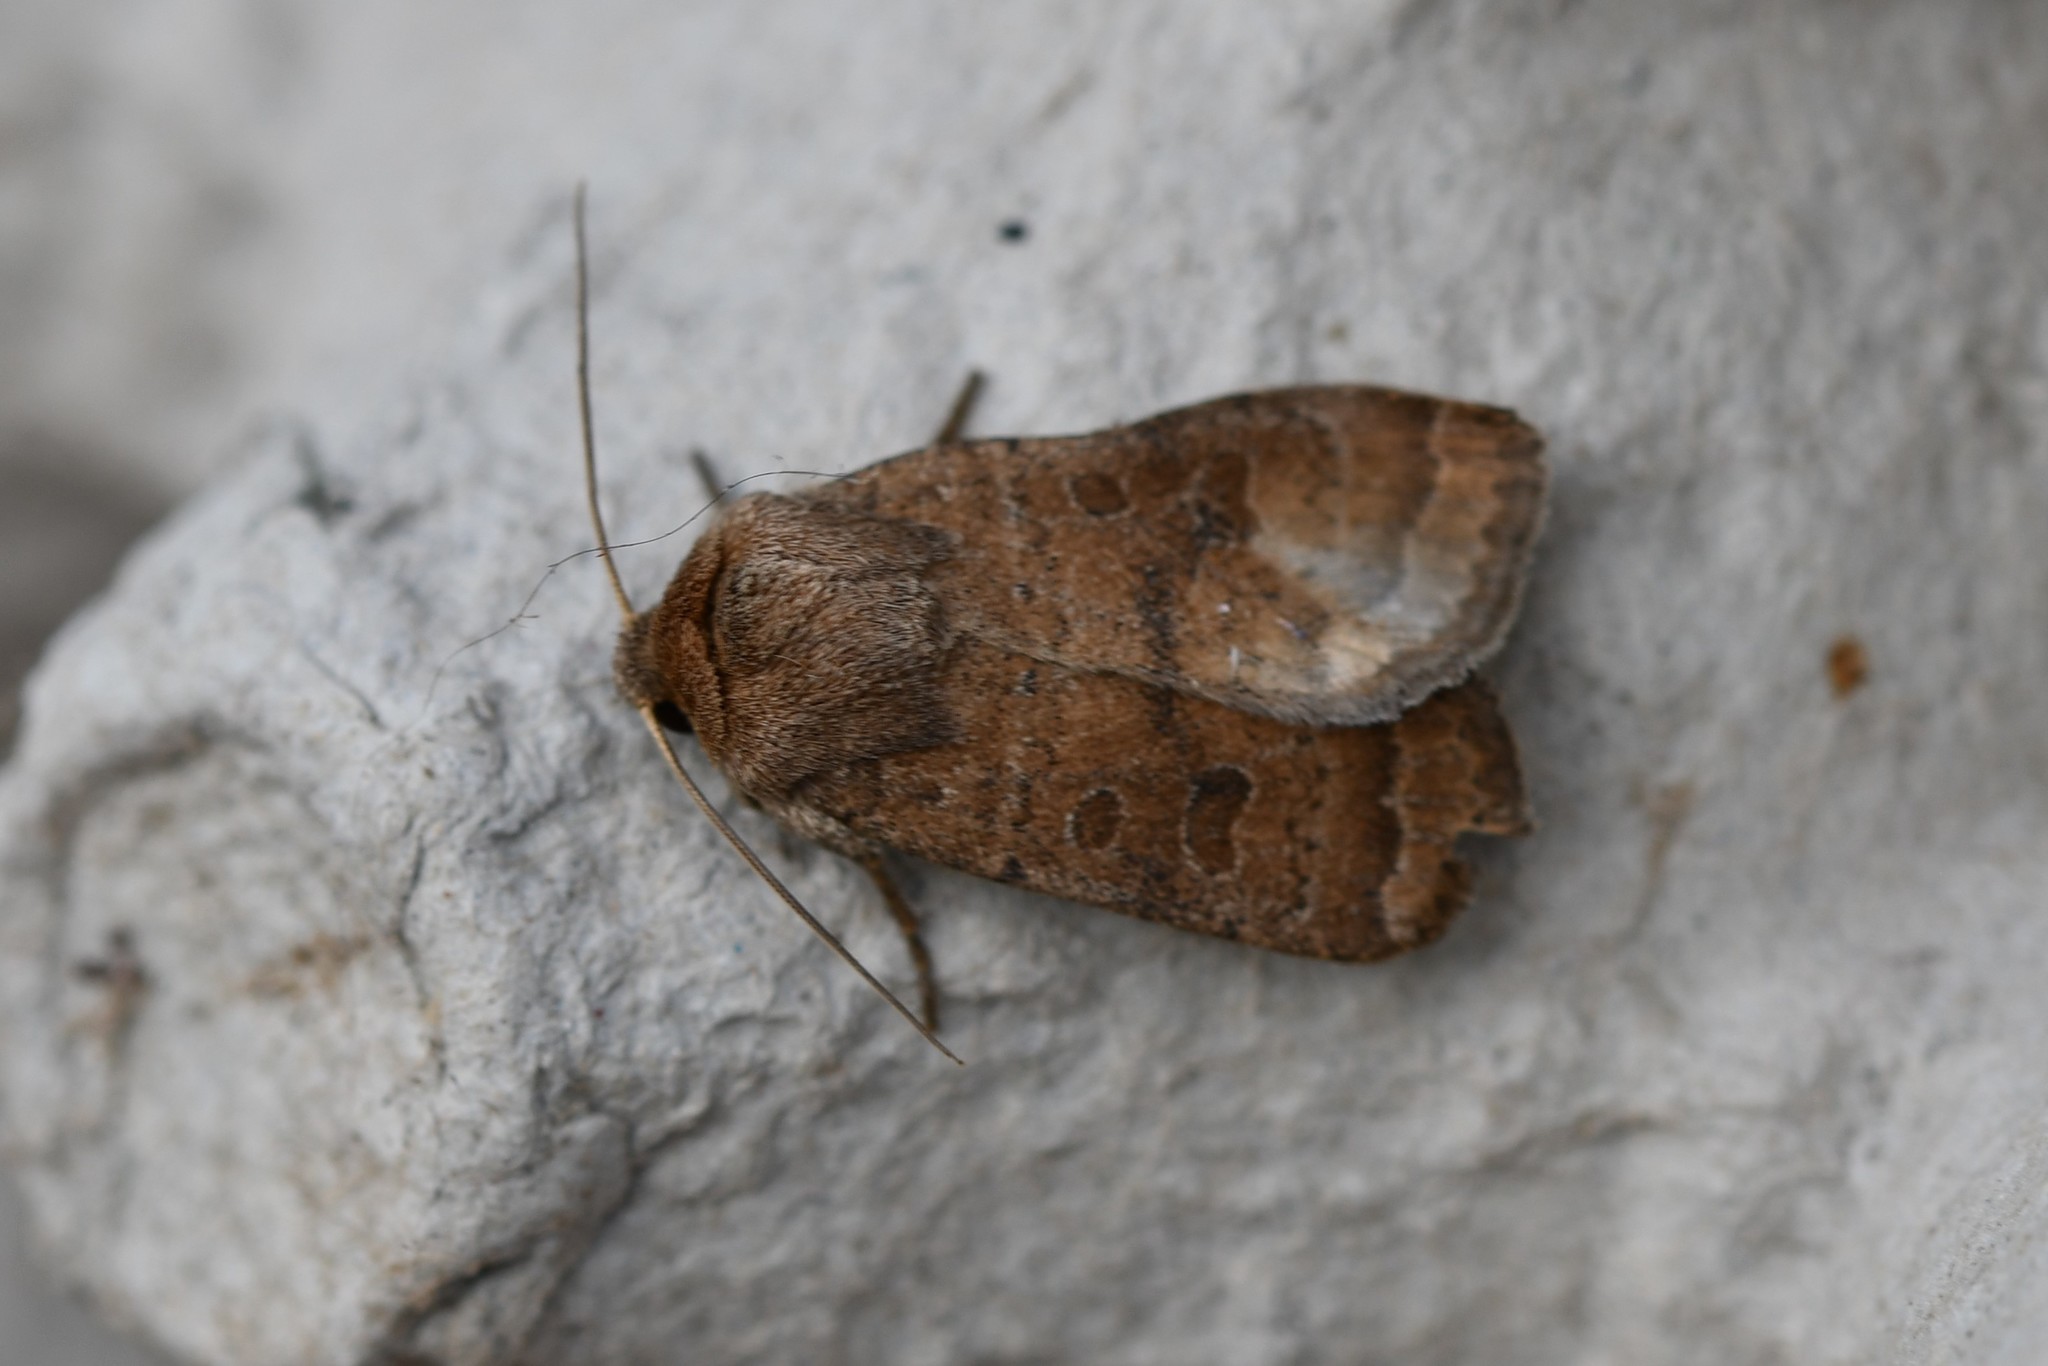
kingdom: Animalia
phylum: Arthropoda
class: Insecta
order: Lepidoptera
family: Noctuidae
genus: Hoplodrina
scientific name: Hoplodrina octogenaria
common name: Uncertain
